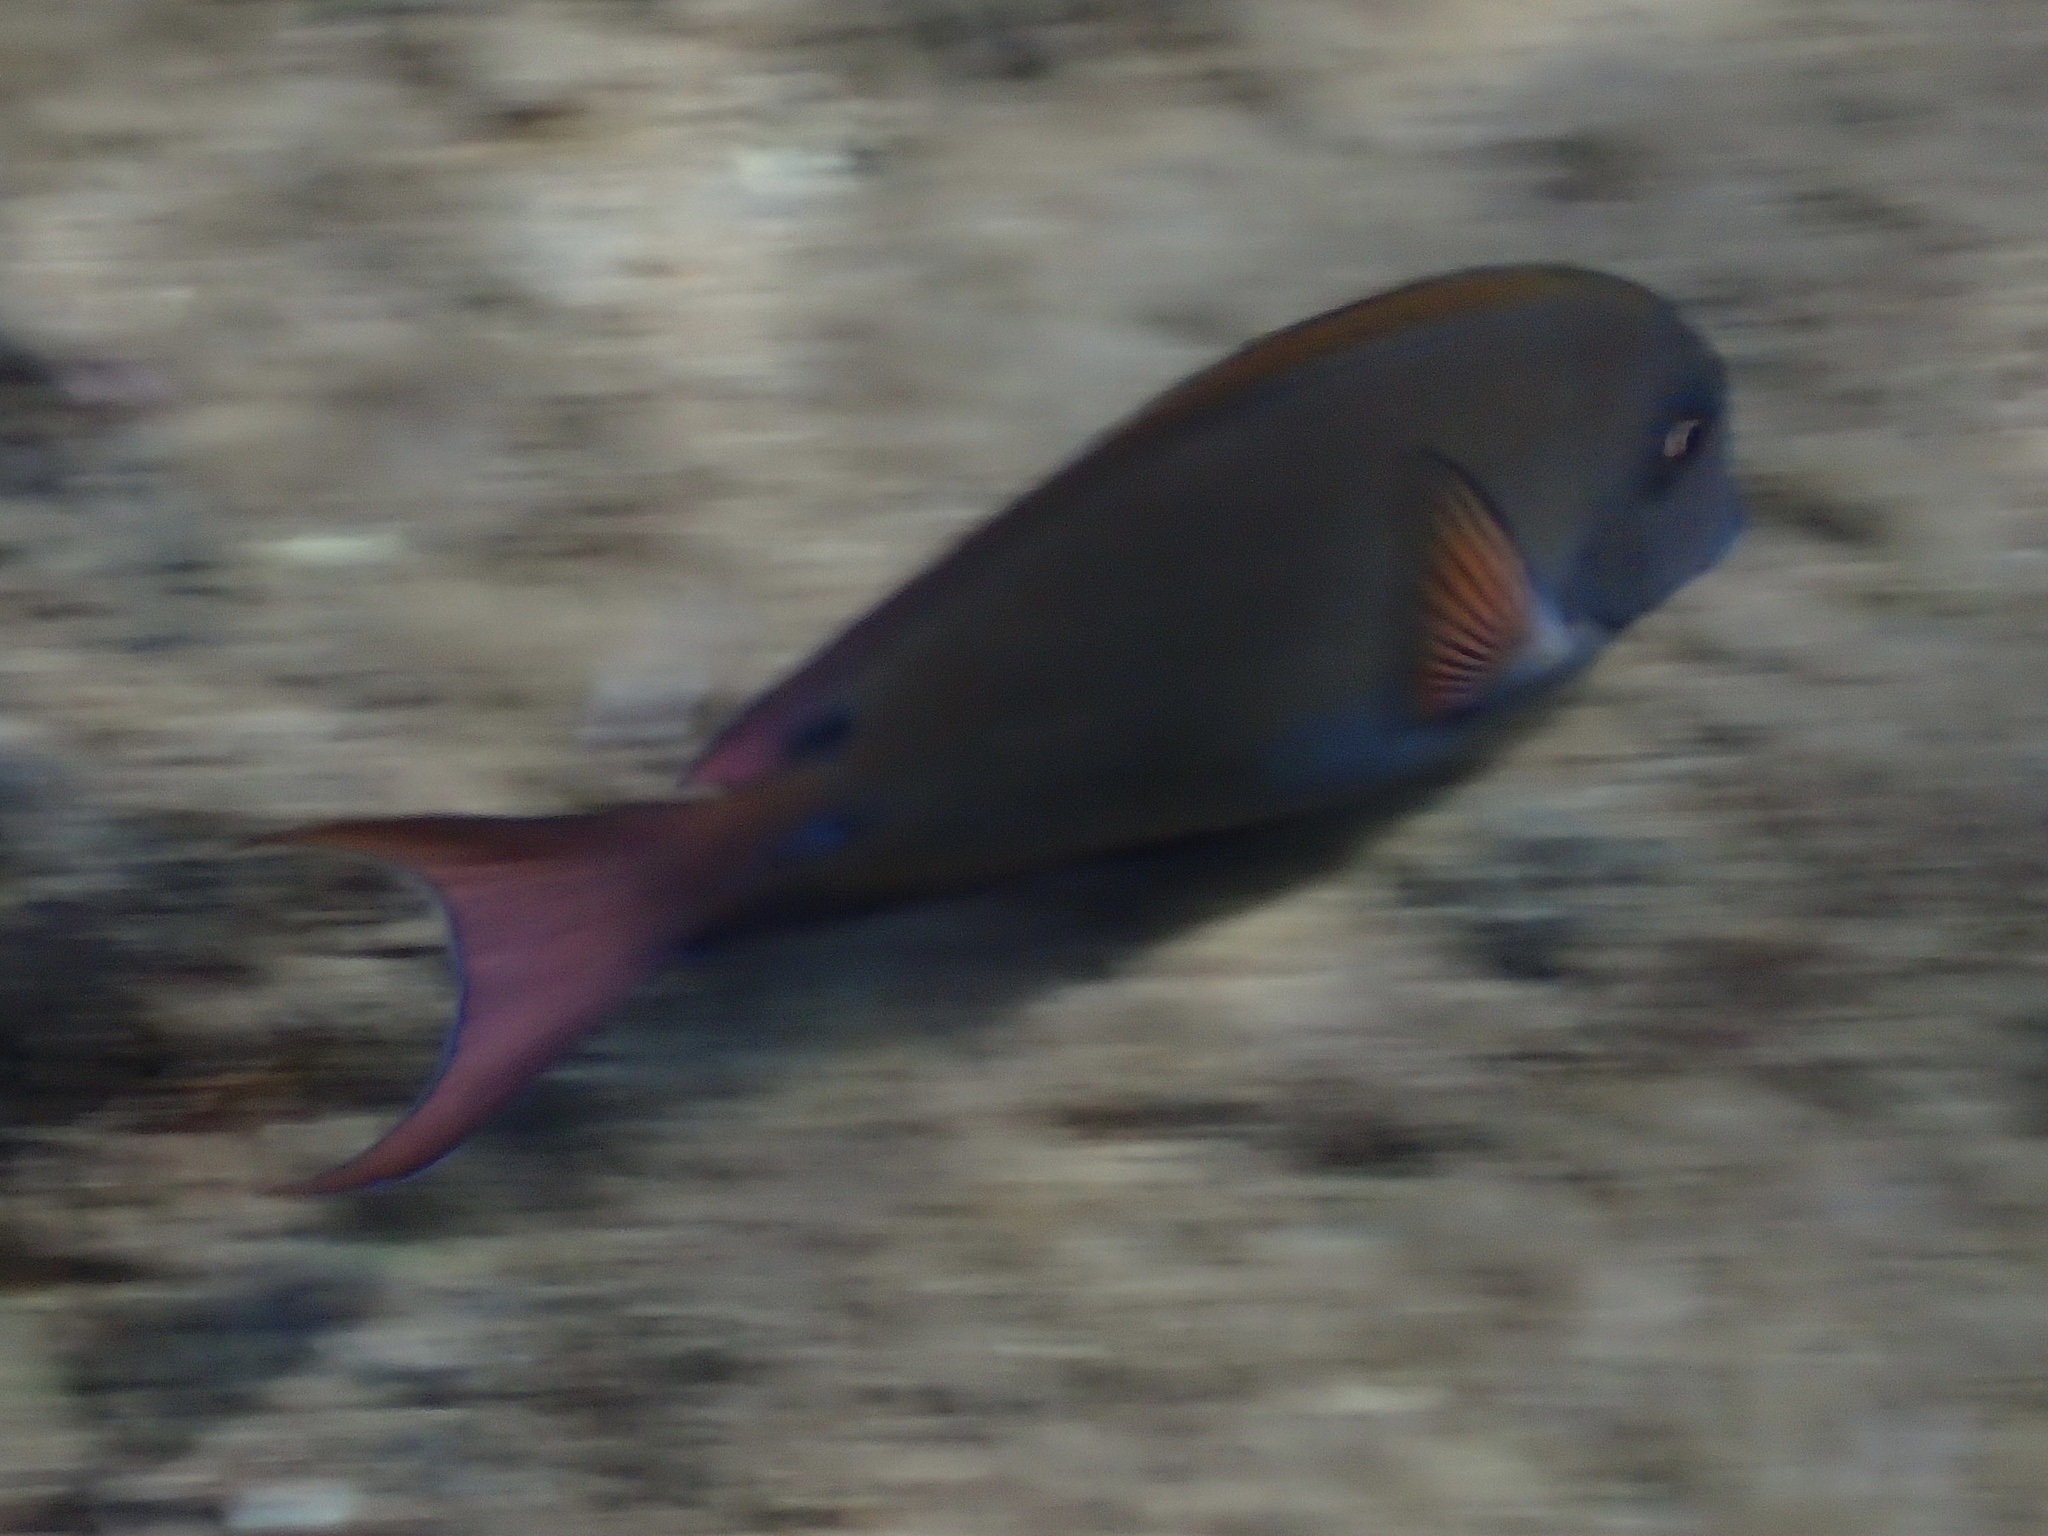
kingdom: Animalia
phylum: Chordata
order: Perciformes
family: Acanthuridae
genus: Acanthurus
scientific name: Acanthurus nigrofuscus
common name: Blackspot surgeonfish
